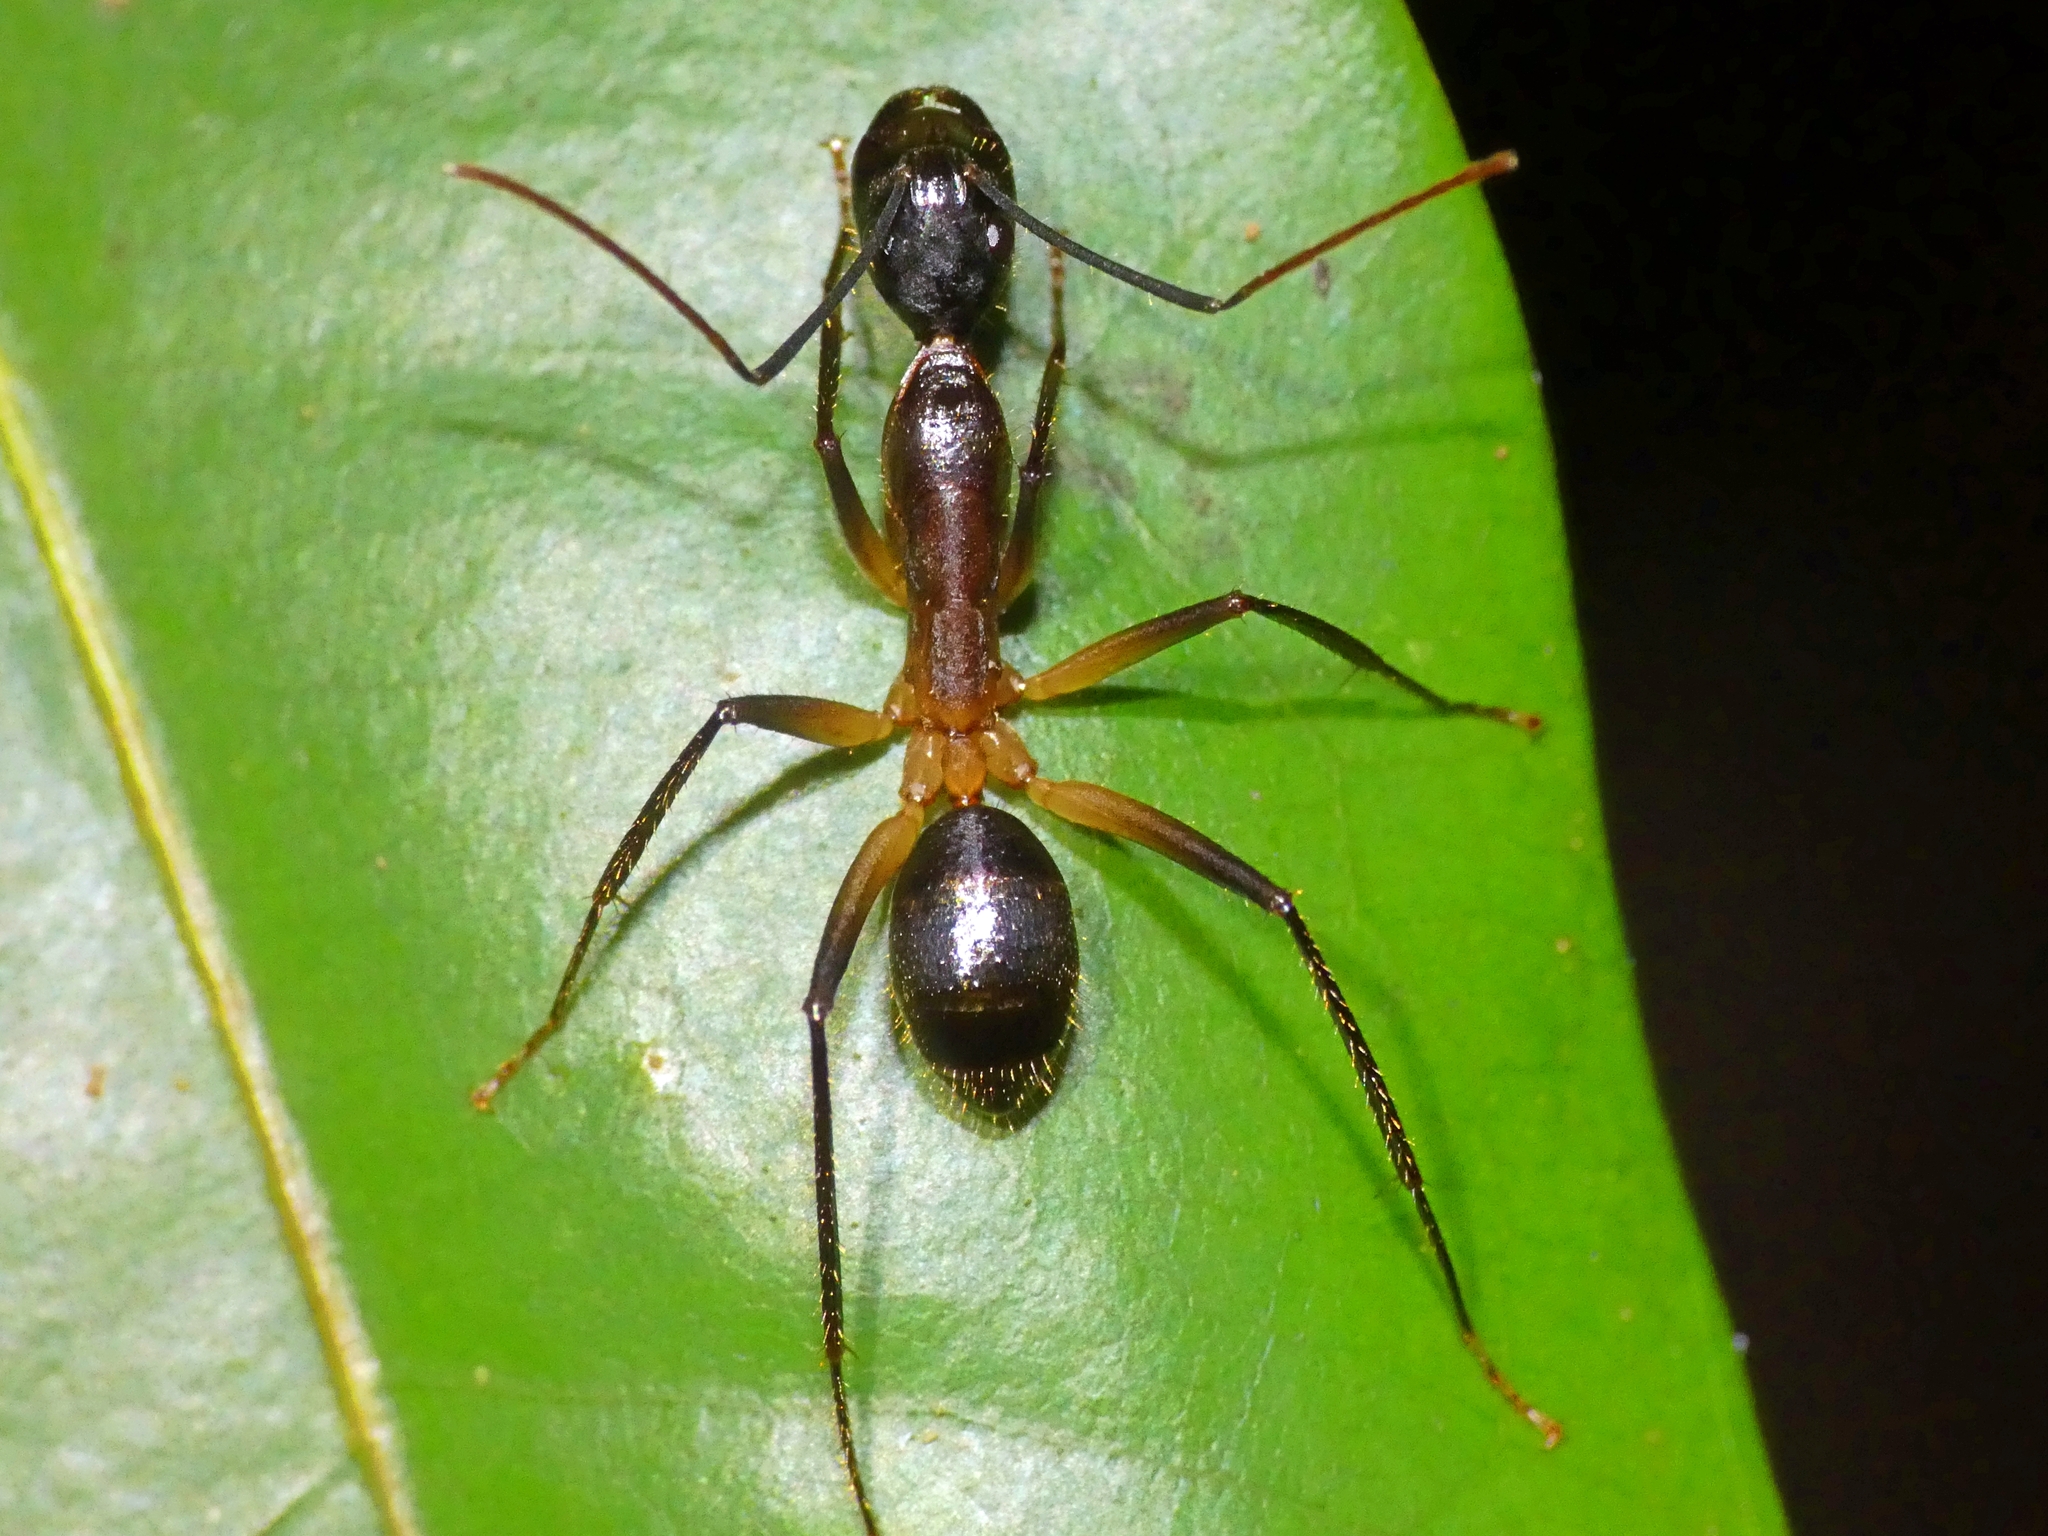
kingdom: Animalia
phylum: Arthropoda
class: Insecta
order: Hymenoptera
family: Formicidae
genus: Camponotus
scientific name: Camponotus
